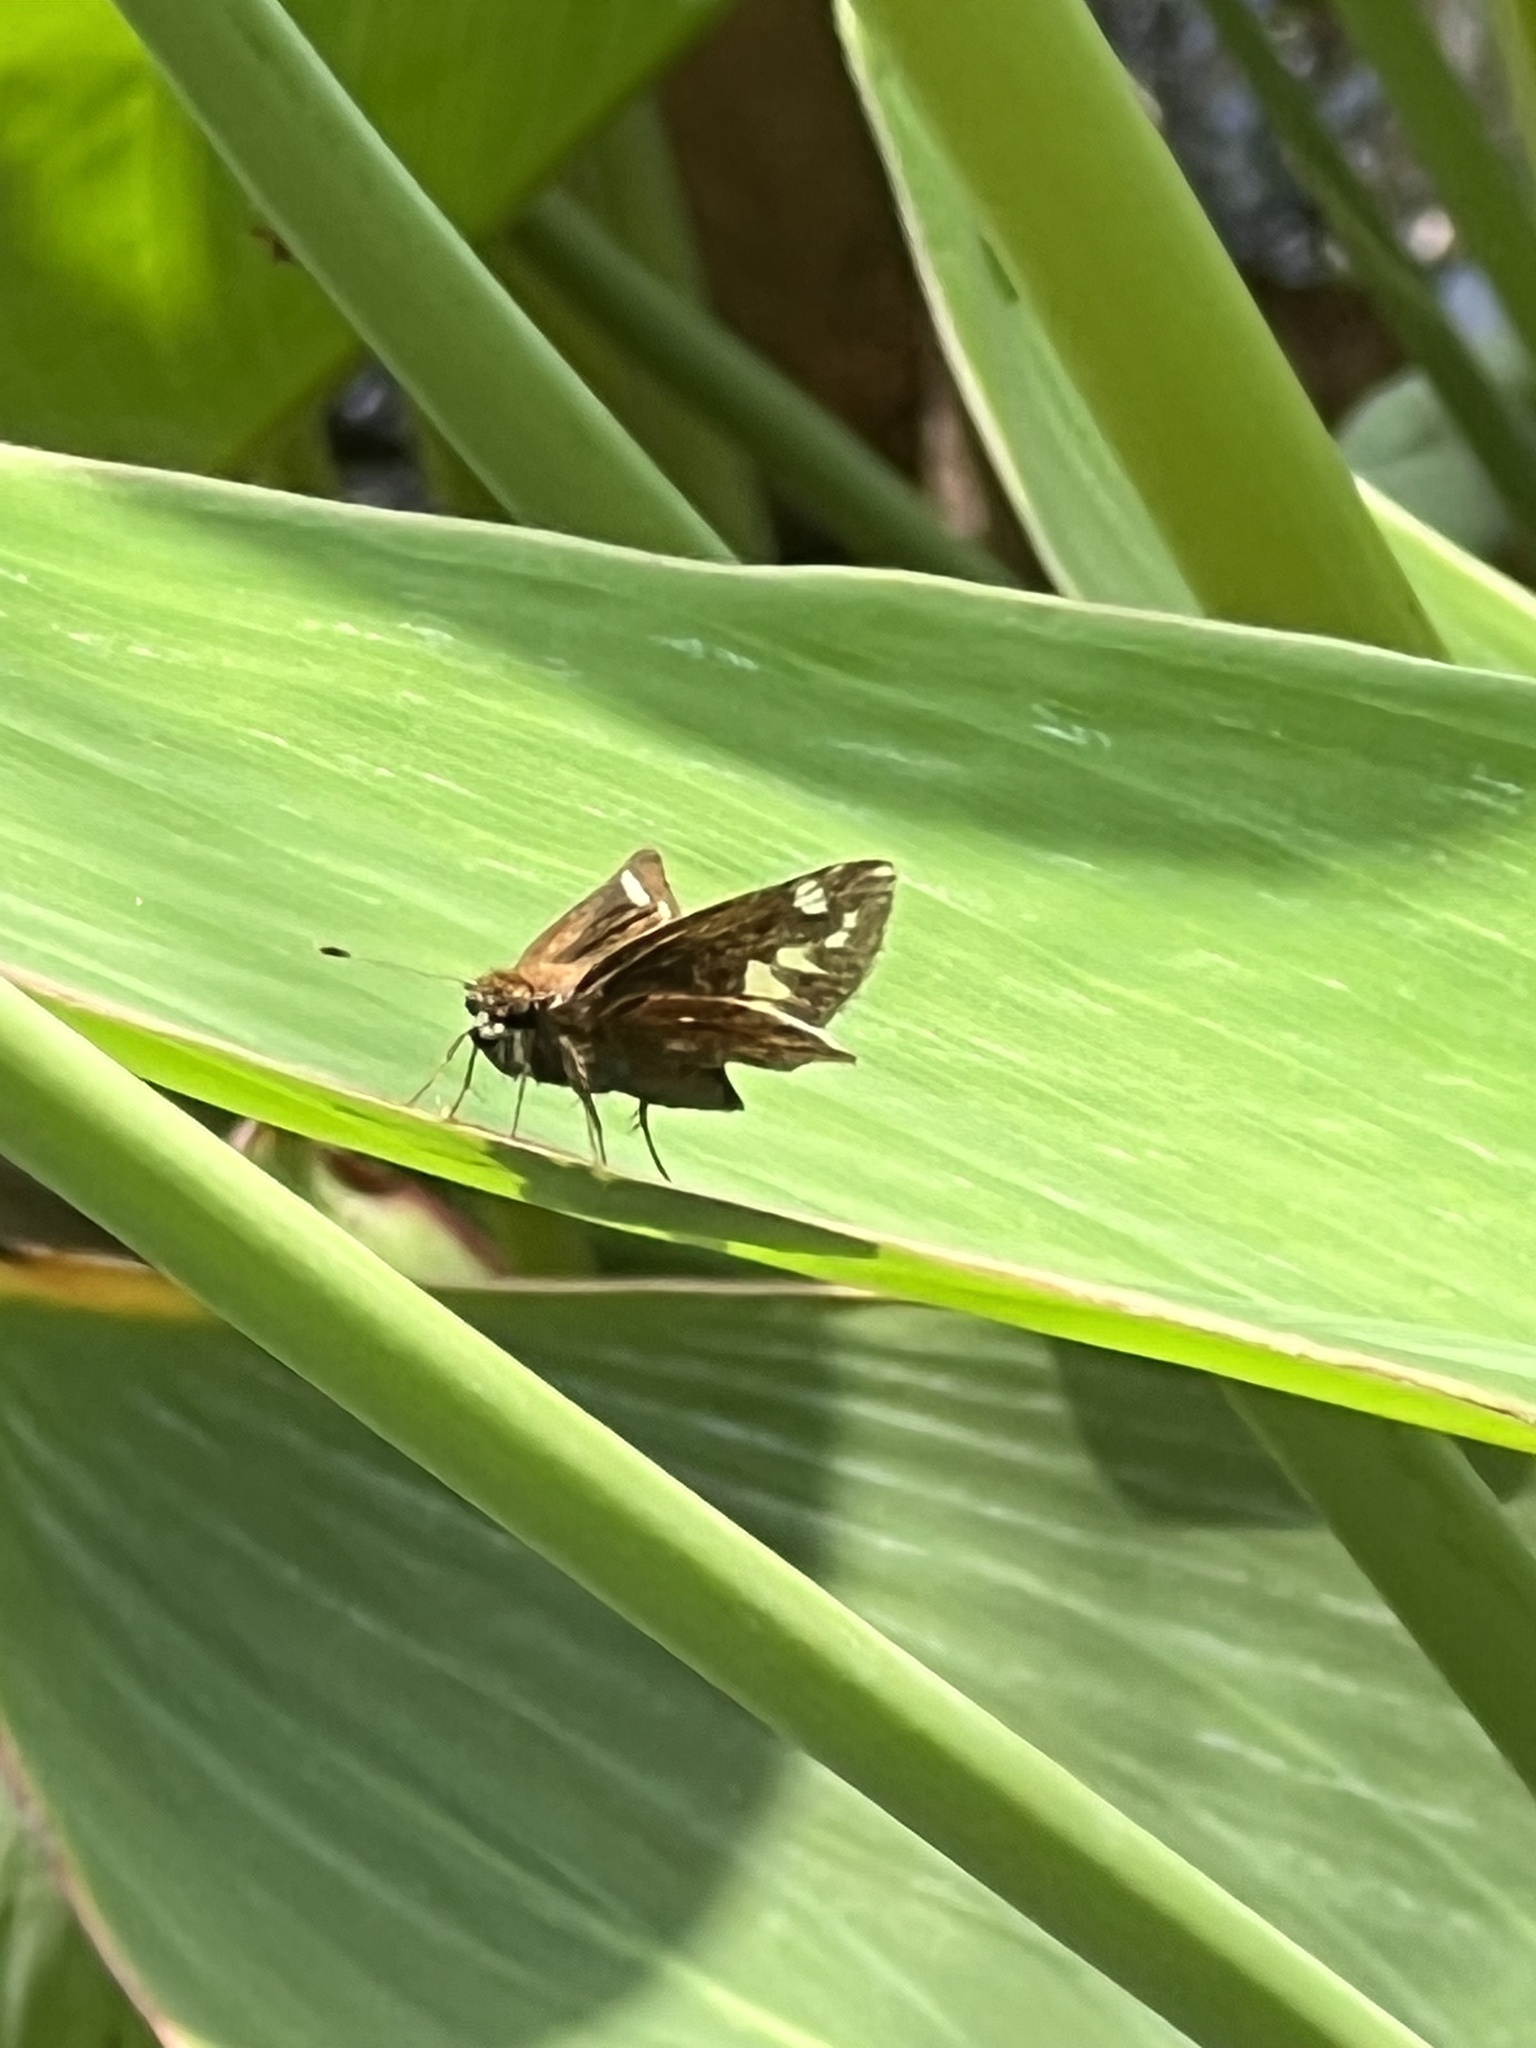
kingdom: Animalia
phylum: Arthropoda
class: Insecta
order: Lepidoptera
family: Hesperiidae
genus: Lon
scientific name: Lon zabulon
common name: Zabulon skipper
